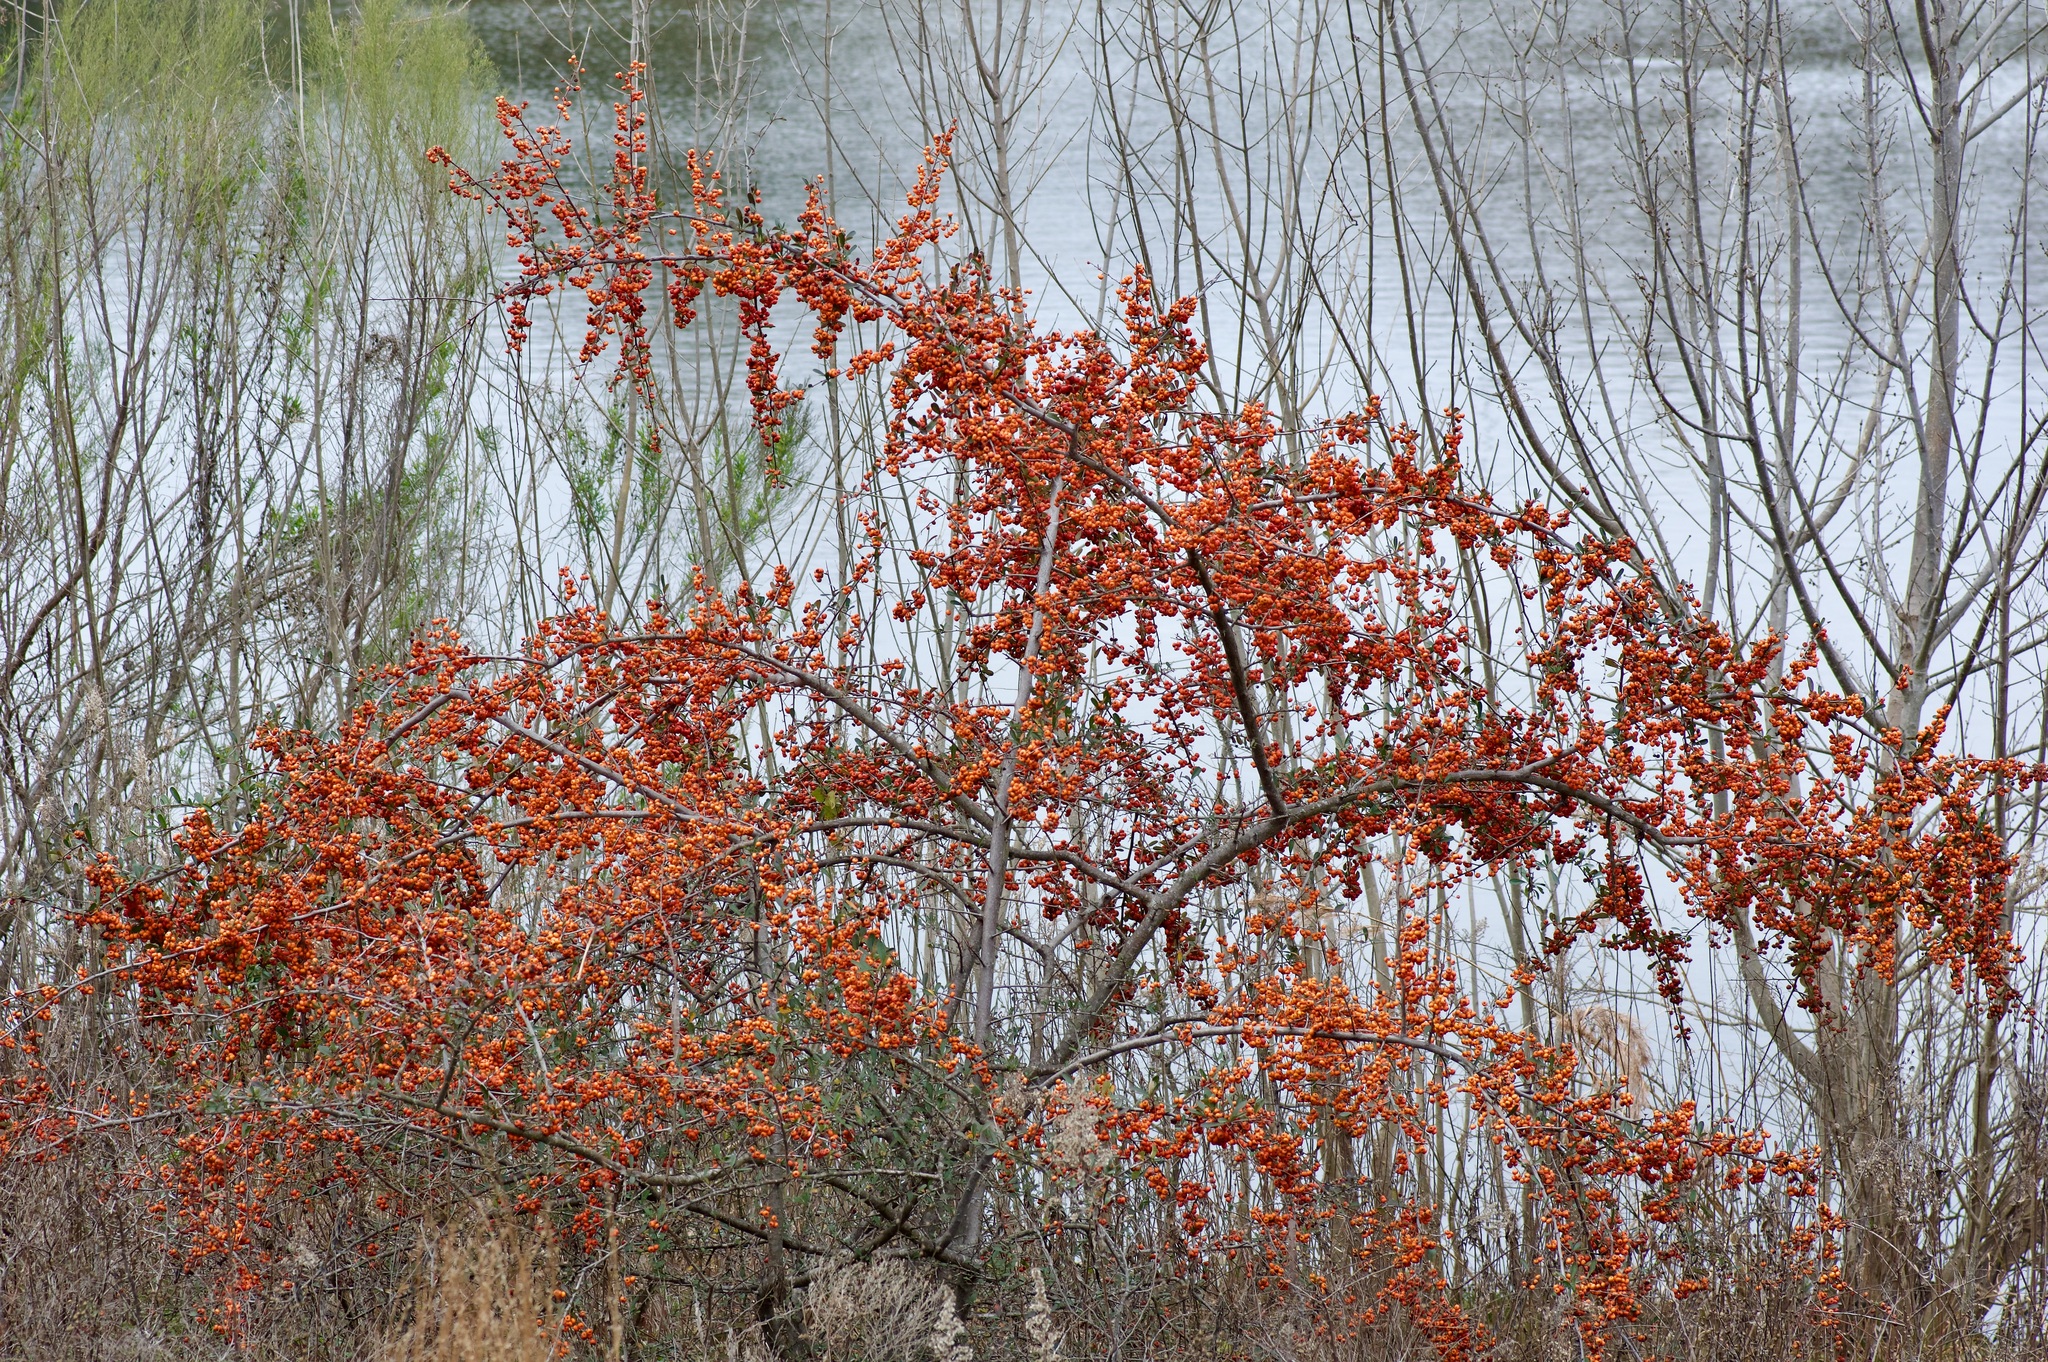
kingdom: Plantae
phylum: Tracheophyta
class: Magnoliopsida
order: Aquifoliales
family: Aquifoliaceae
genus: Ilex
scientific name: Ilex decidua
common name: Possum-haw
